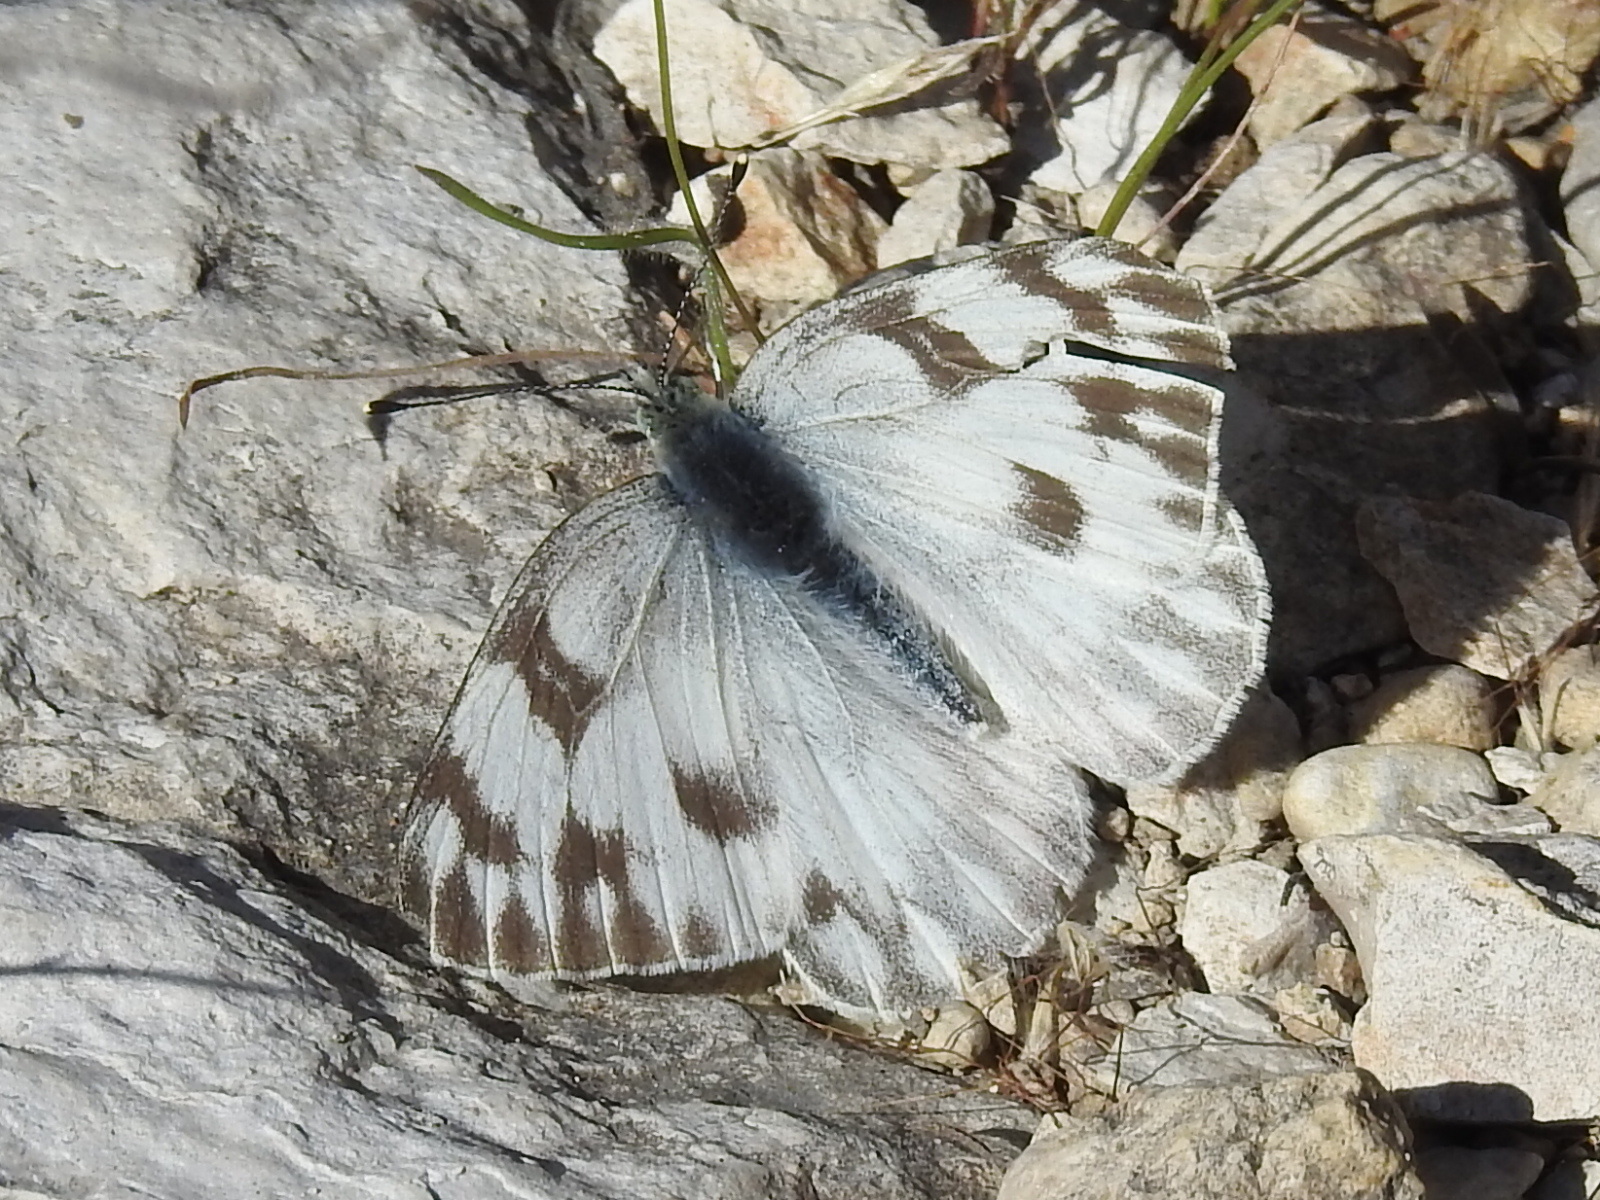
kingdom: Animalia
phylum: Arthropoda
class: Insecta
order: Lepidoptera
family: Pieridae
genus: Pontia
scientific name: Pontia protodice
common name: Checkered white
